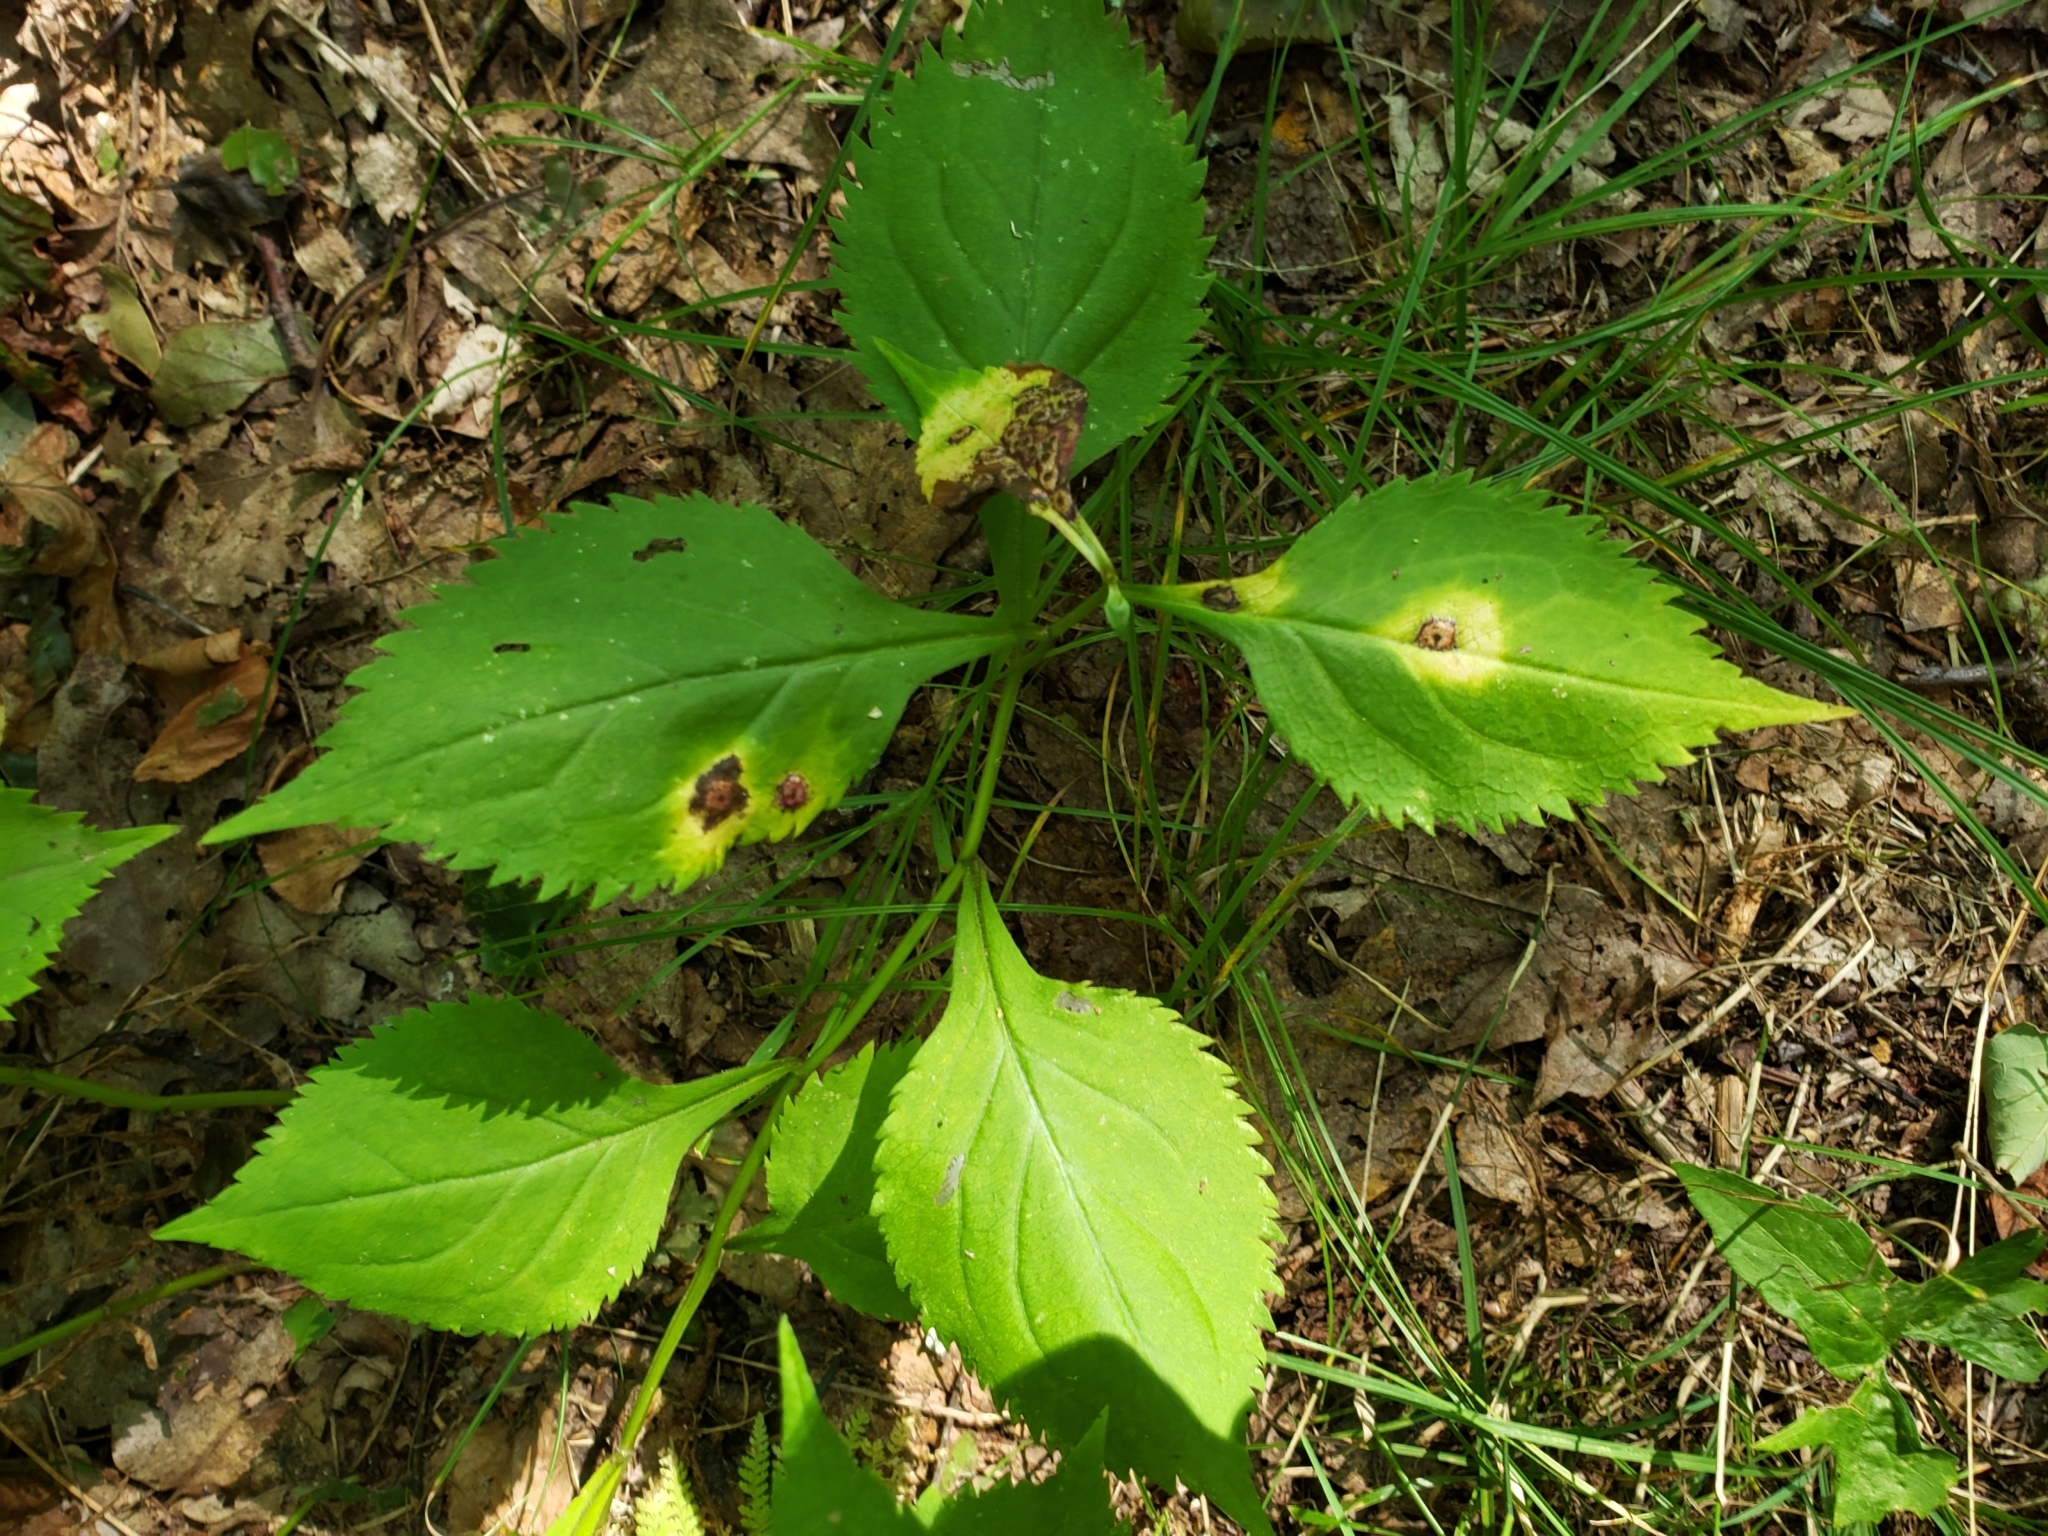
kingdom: Animalia
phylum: Arthropoda
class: Insecta
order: Diptera
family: Cecidomyiidae
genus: Asteromyia
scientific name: Asteromyia carbonifera
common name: Carbonifera goldenrod gall midge
